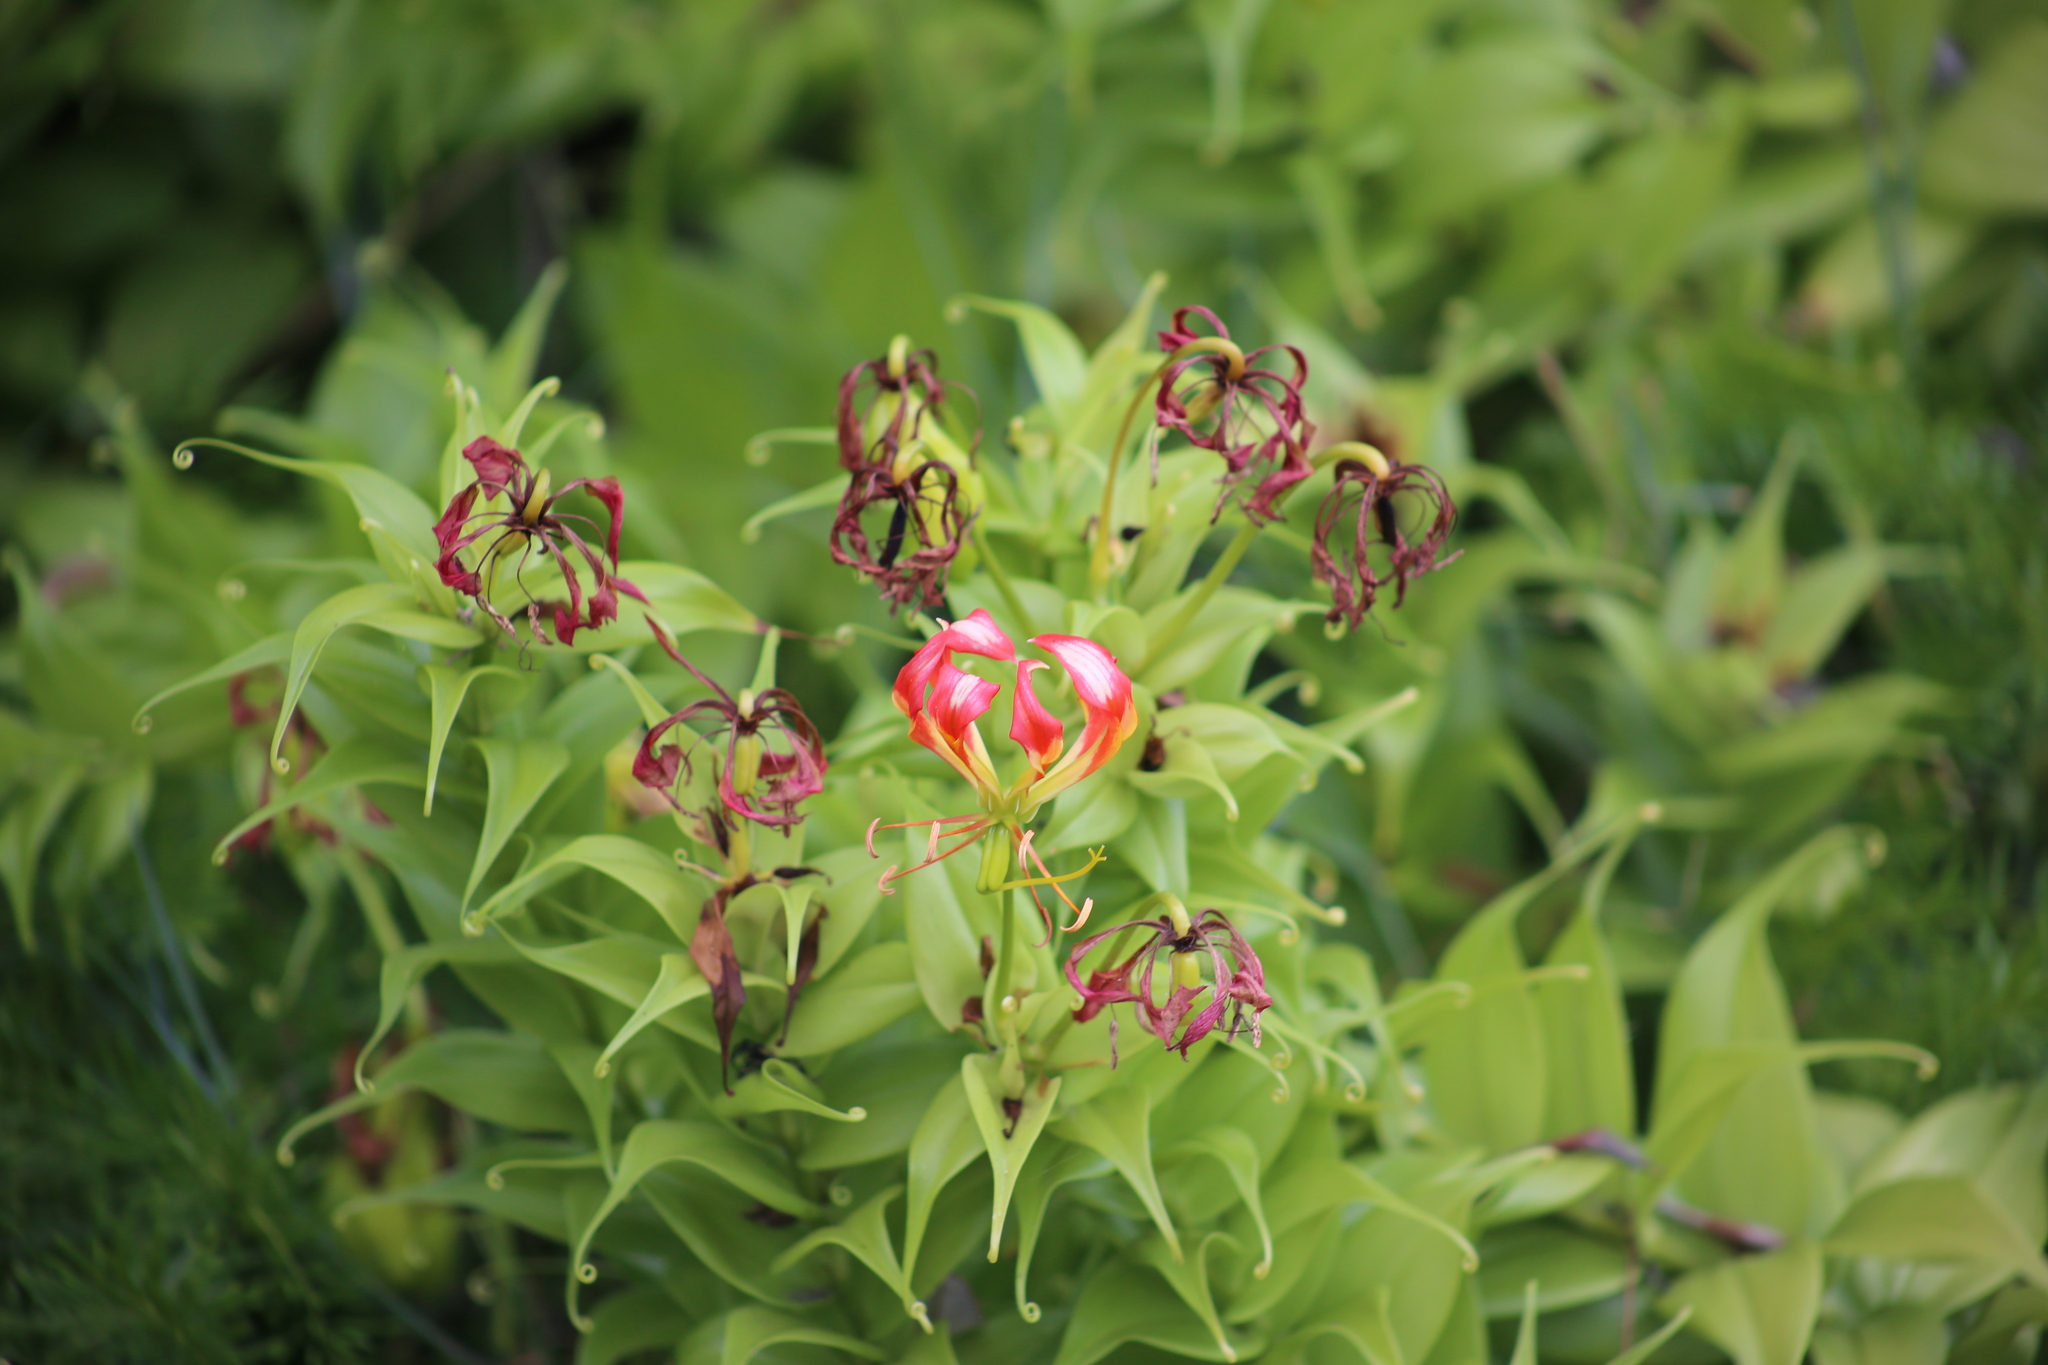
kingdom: Plantae
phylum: Tracheophyta
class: Liliopsida
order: Liliales
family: Colchicaceae
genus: Gloriosa
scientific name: Gloriosa superba
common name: Flame lily
